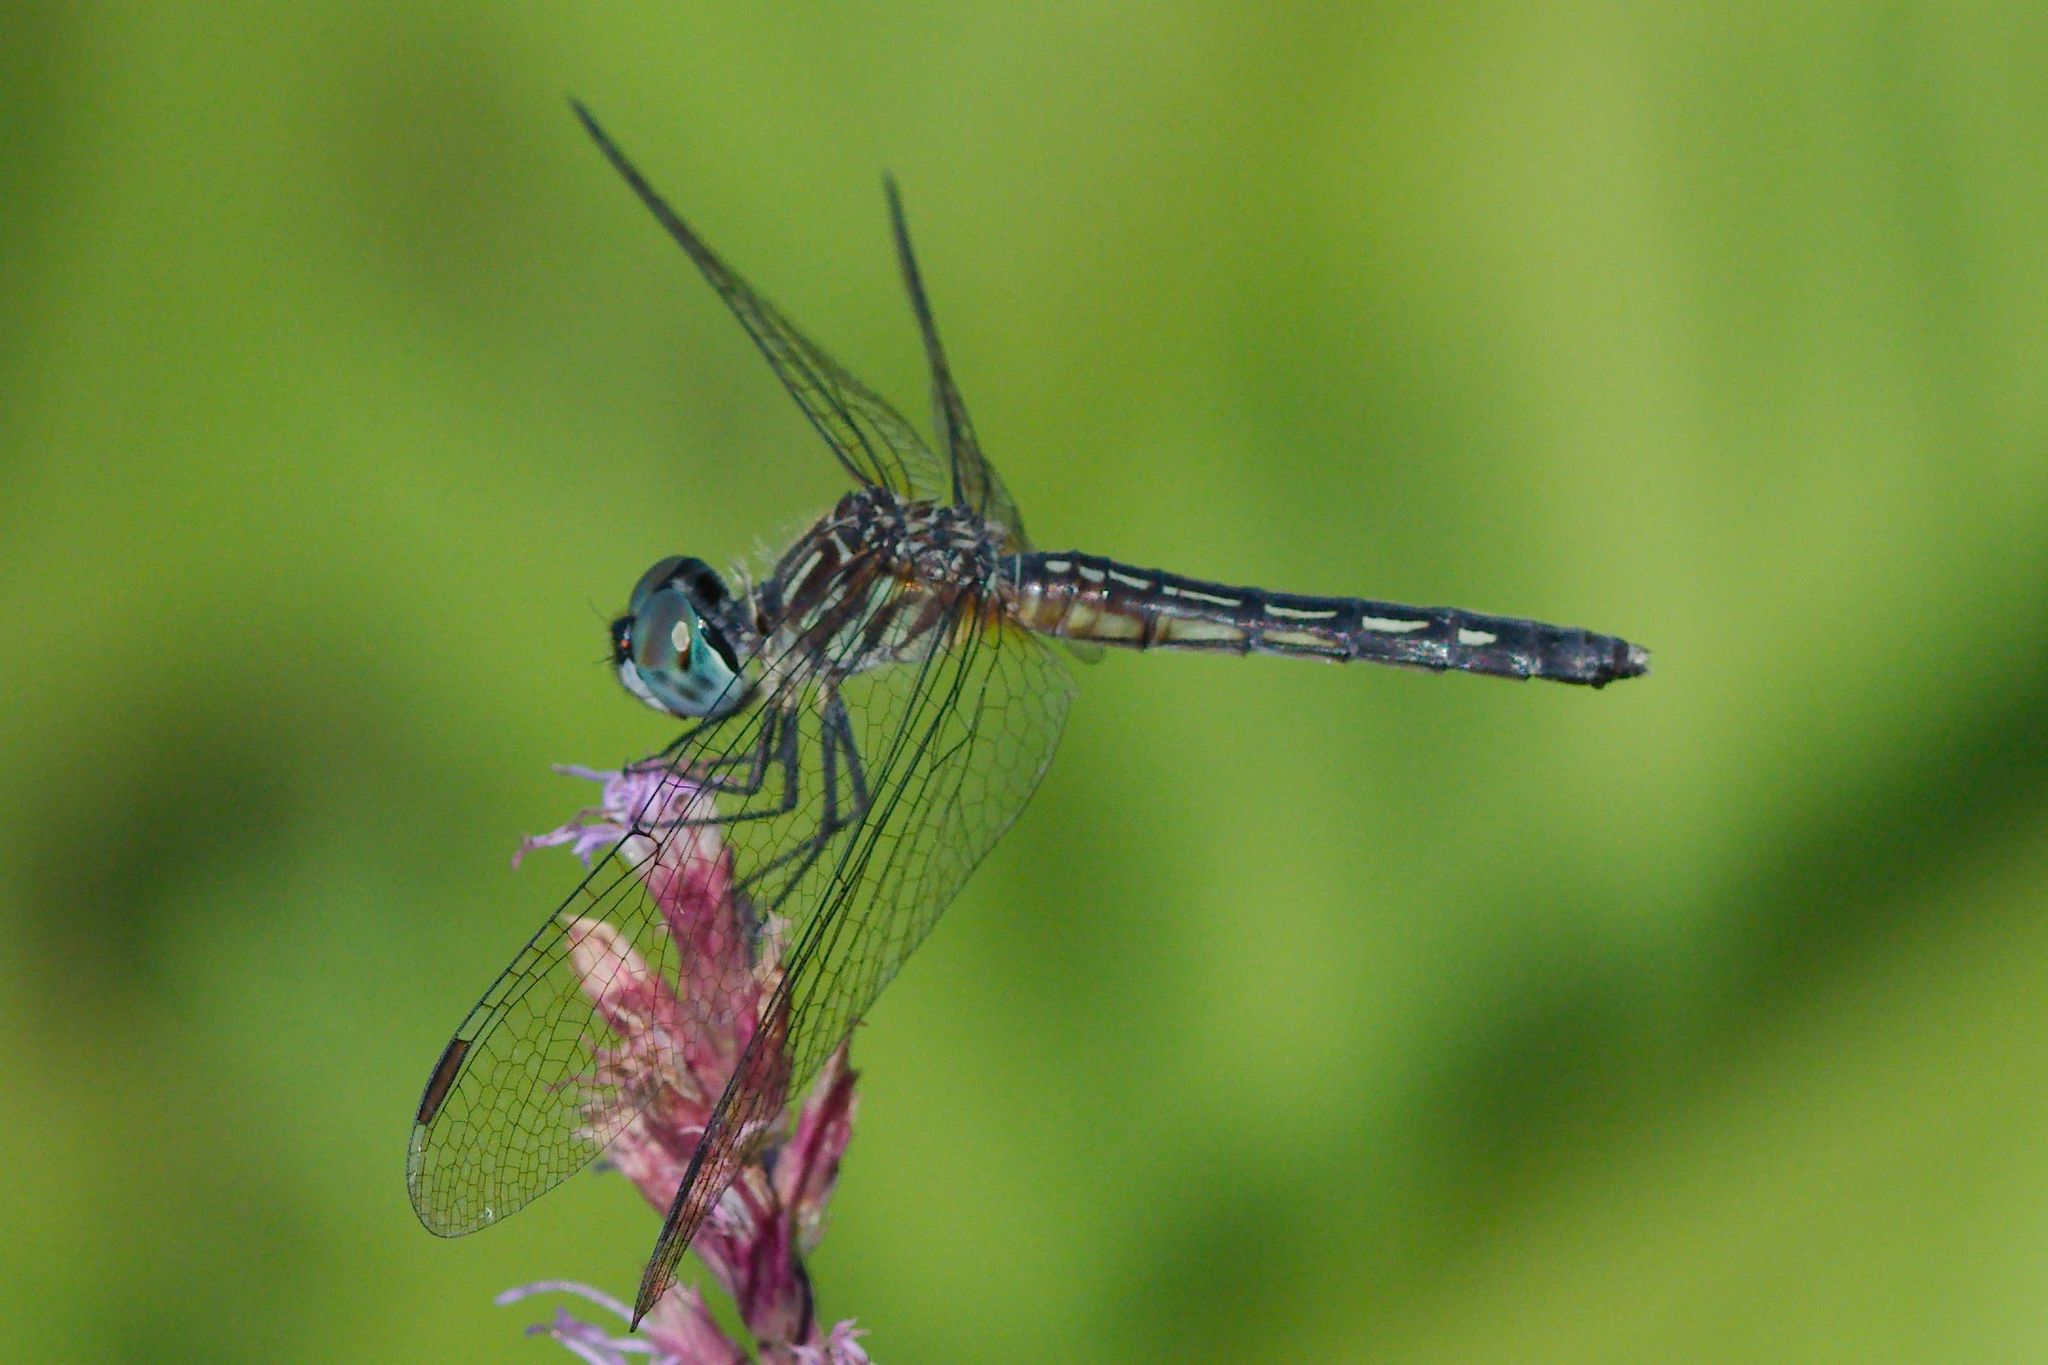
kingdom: Animalia
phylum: Arthropoda
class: Insecta
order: Odonata
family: Libellulidae
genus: Pachydiplax
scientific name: Pachydiplax longipennis
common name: Blue dasher
